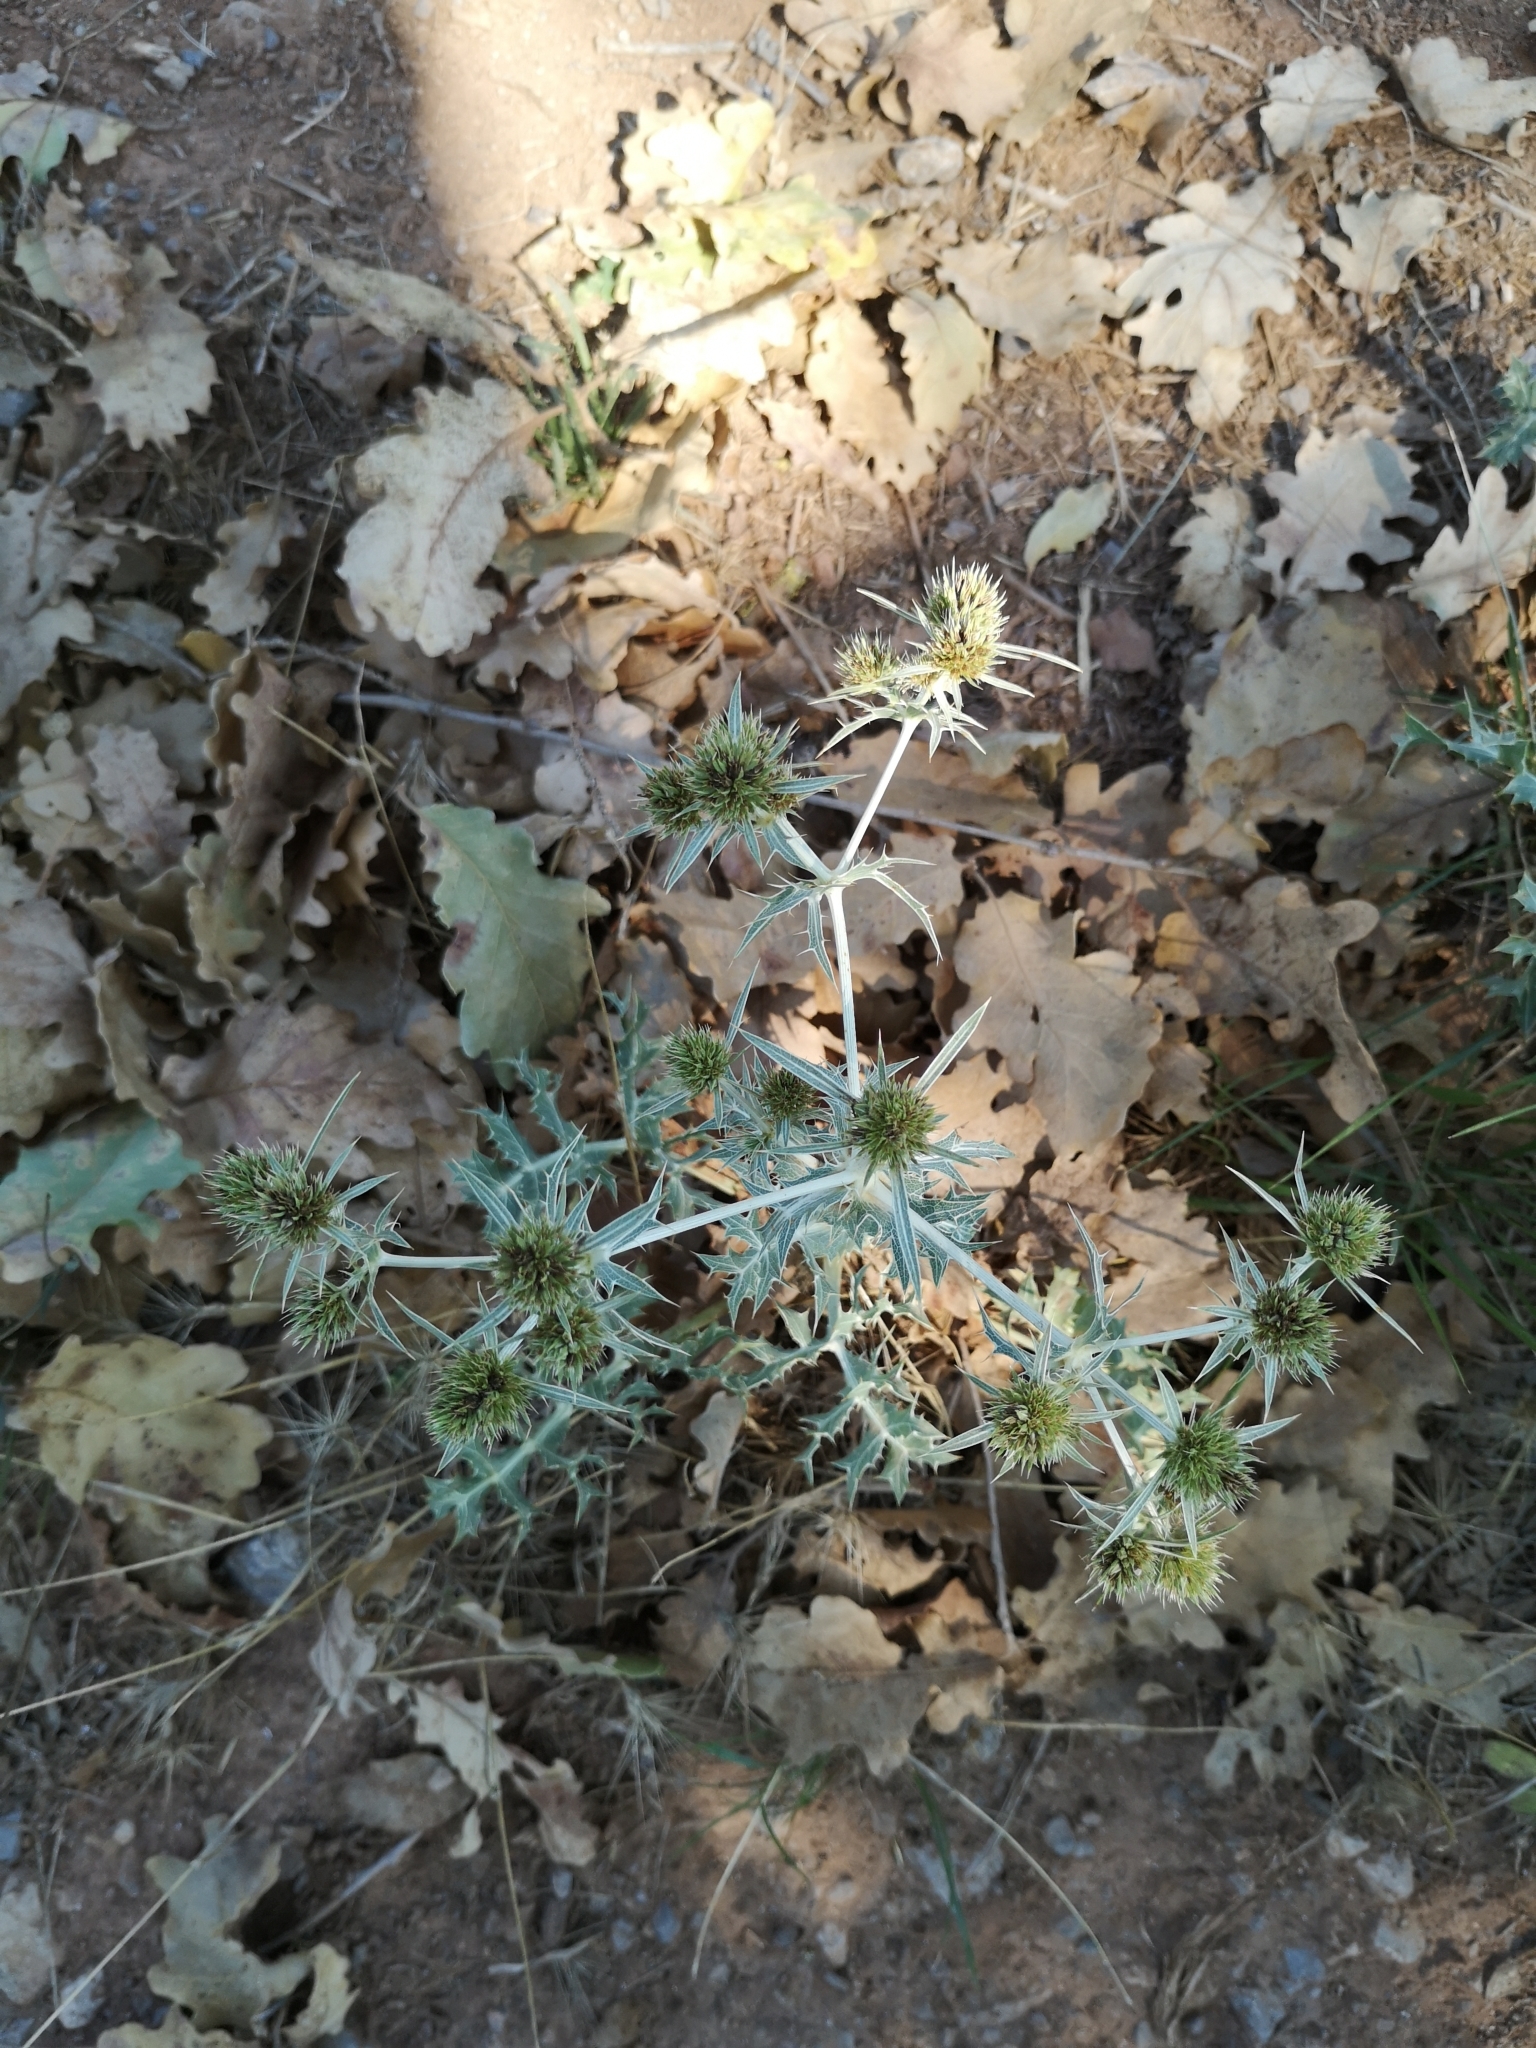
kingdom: Plantae
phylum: Tracheophyta
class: Magnoliopsida
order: Apiales
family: Apiaceae
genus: Eryngium
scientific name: Eryngium campestre
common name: Field eryngo
